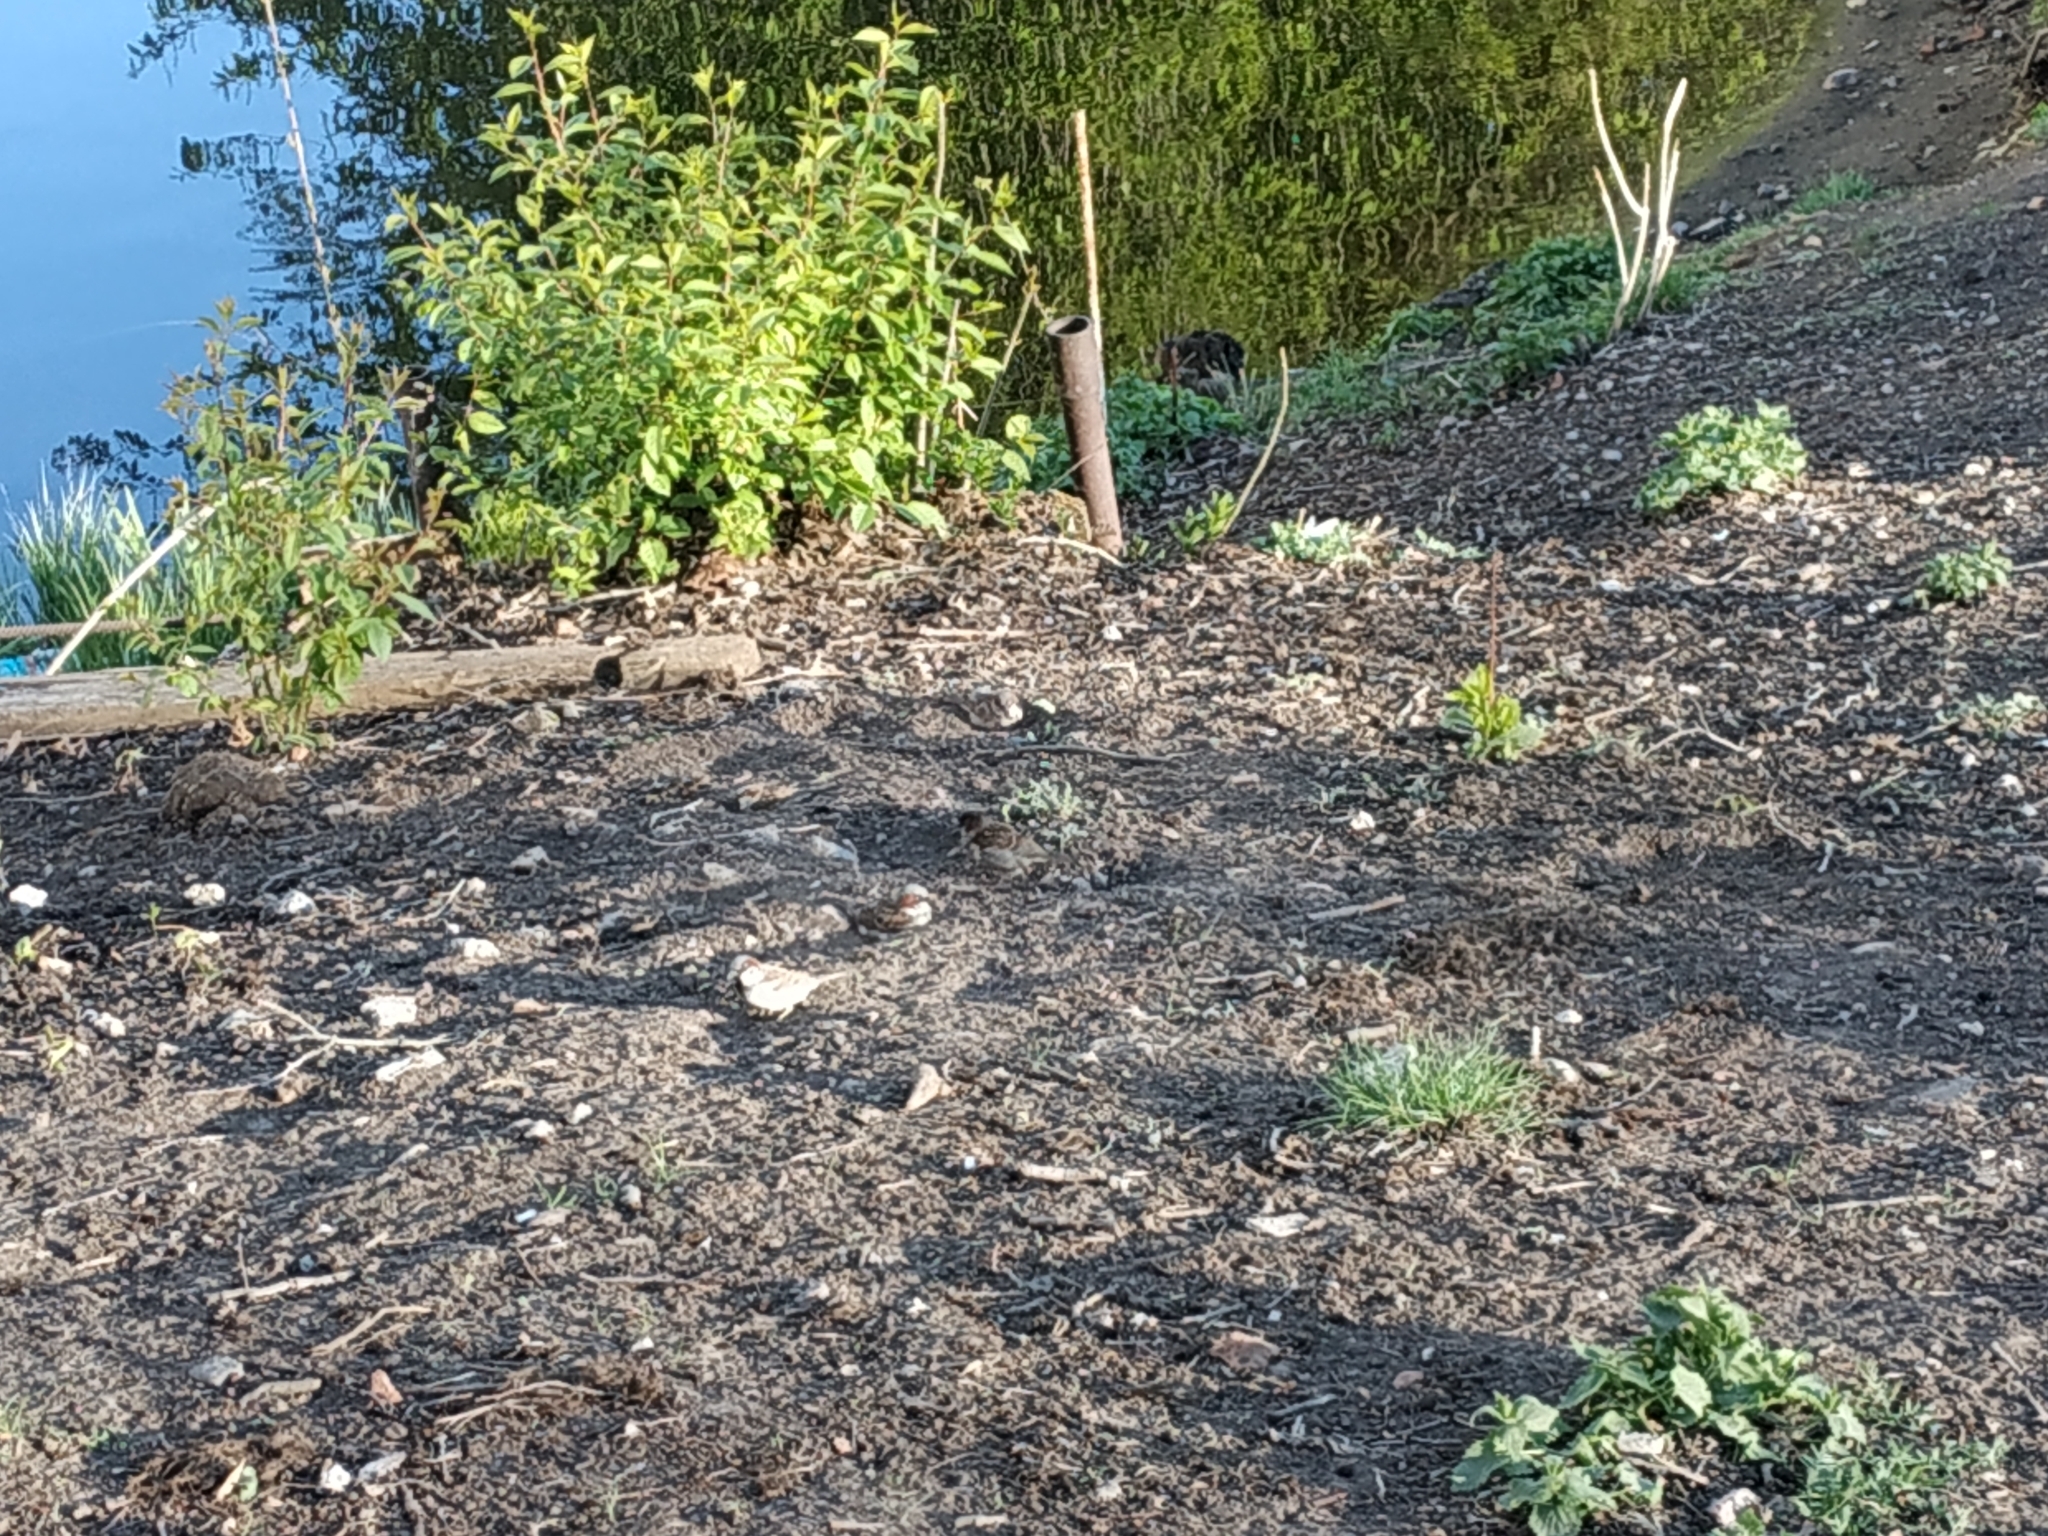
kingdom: Animalia
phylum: Chordata
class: Aves
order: Passeriformes
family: Passeridae
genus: Passer
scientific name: Passer domesticus
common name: House sparrow
